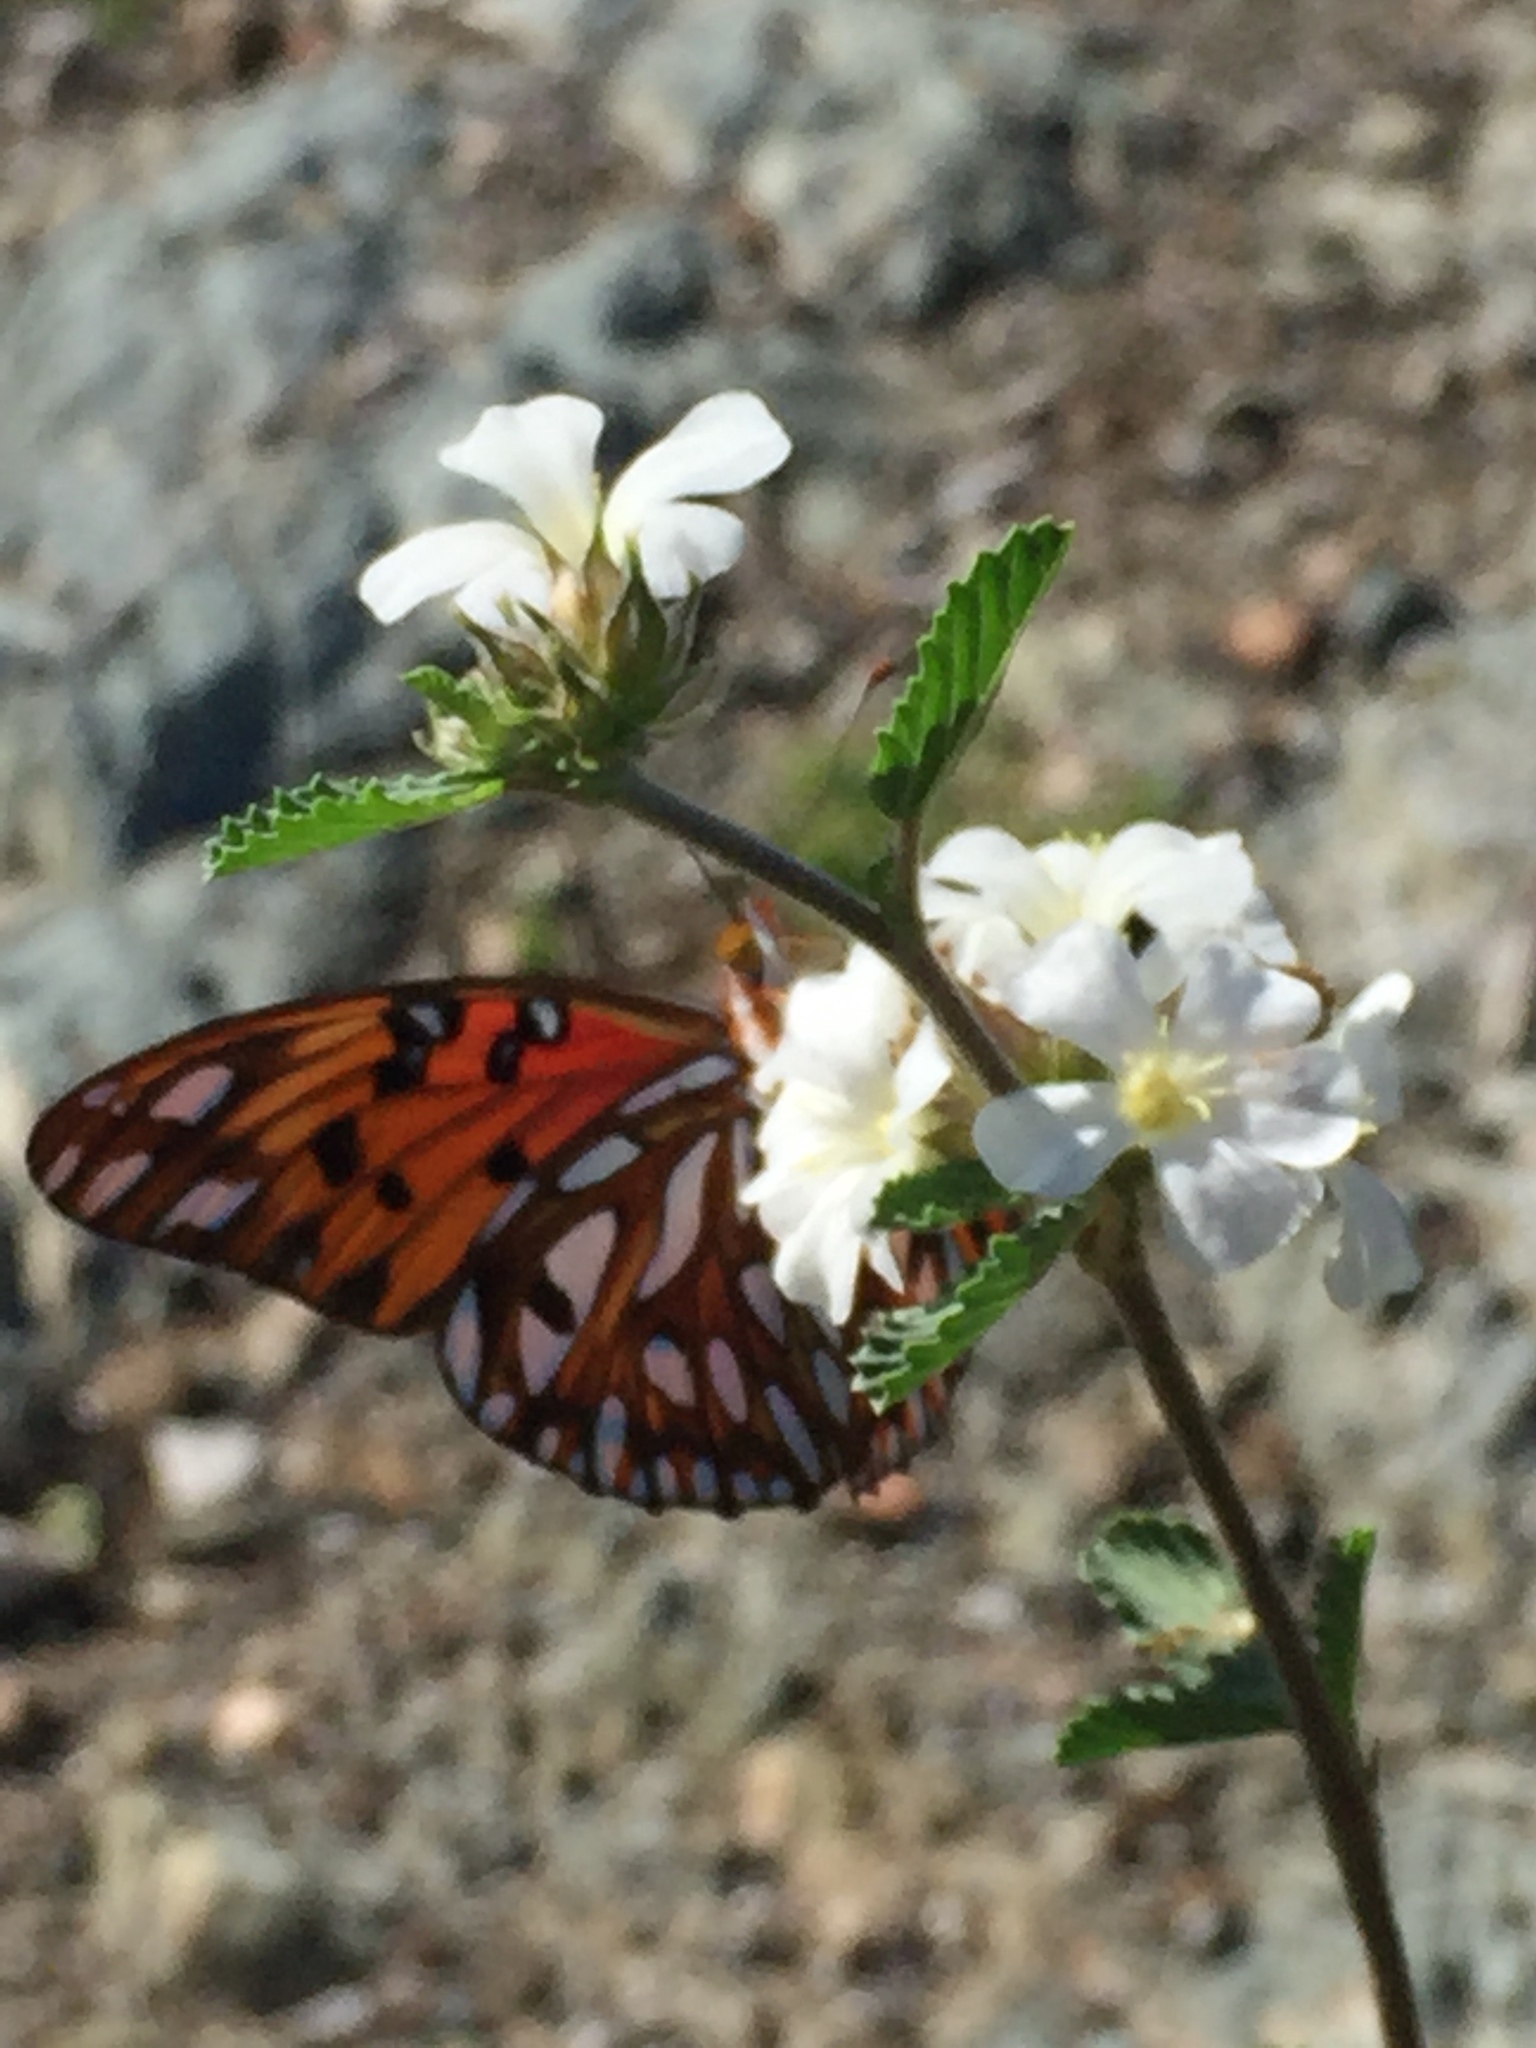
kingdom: Animalia
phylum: Arthropoda
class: Insecta
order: Lepidoptera
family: Nymphalidae
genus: Dione
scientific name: Dione vanillae
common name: Gulf fritillary
